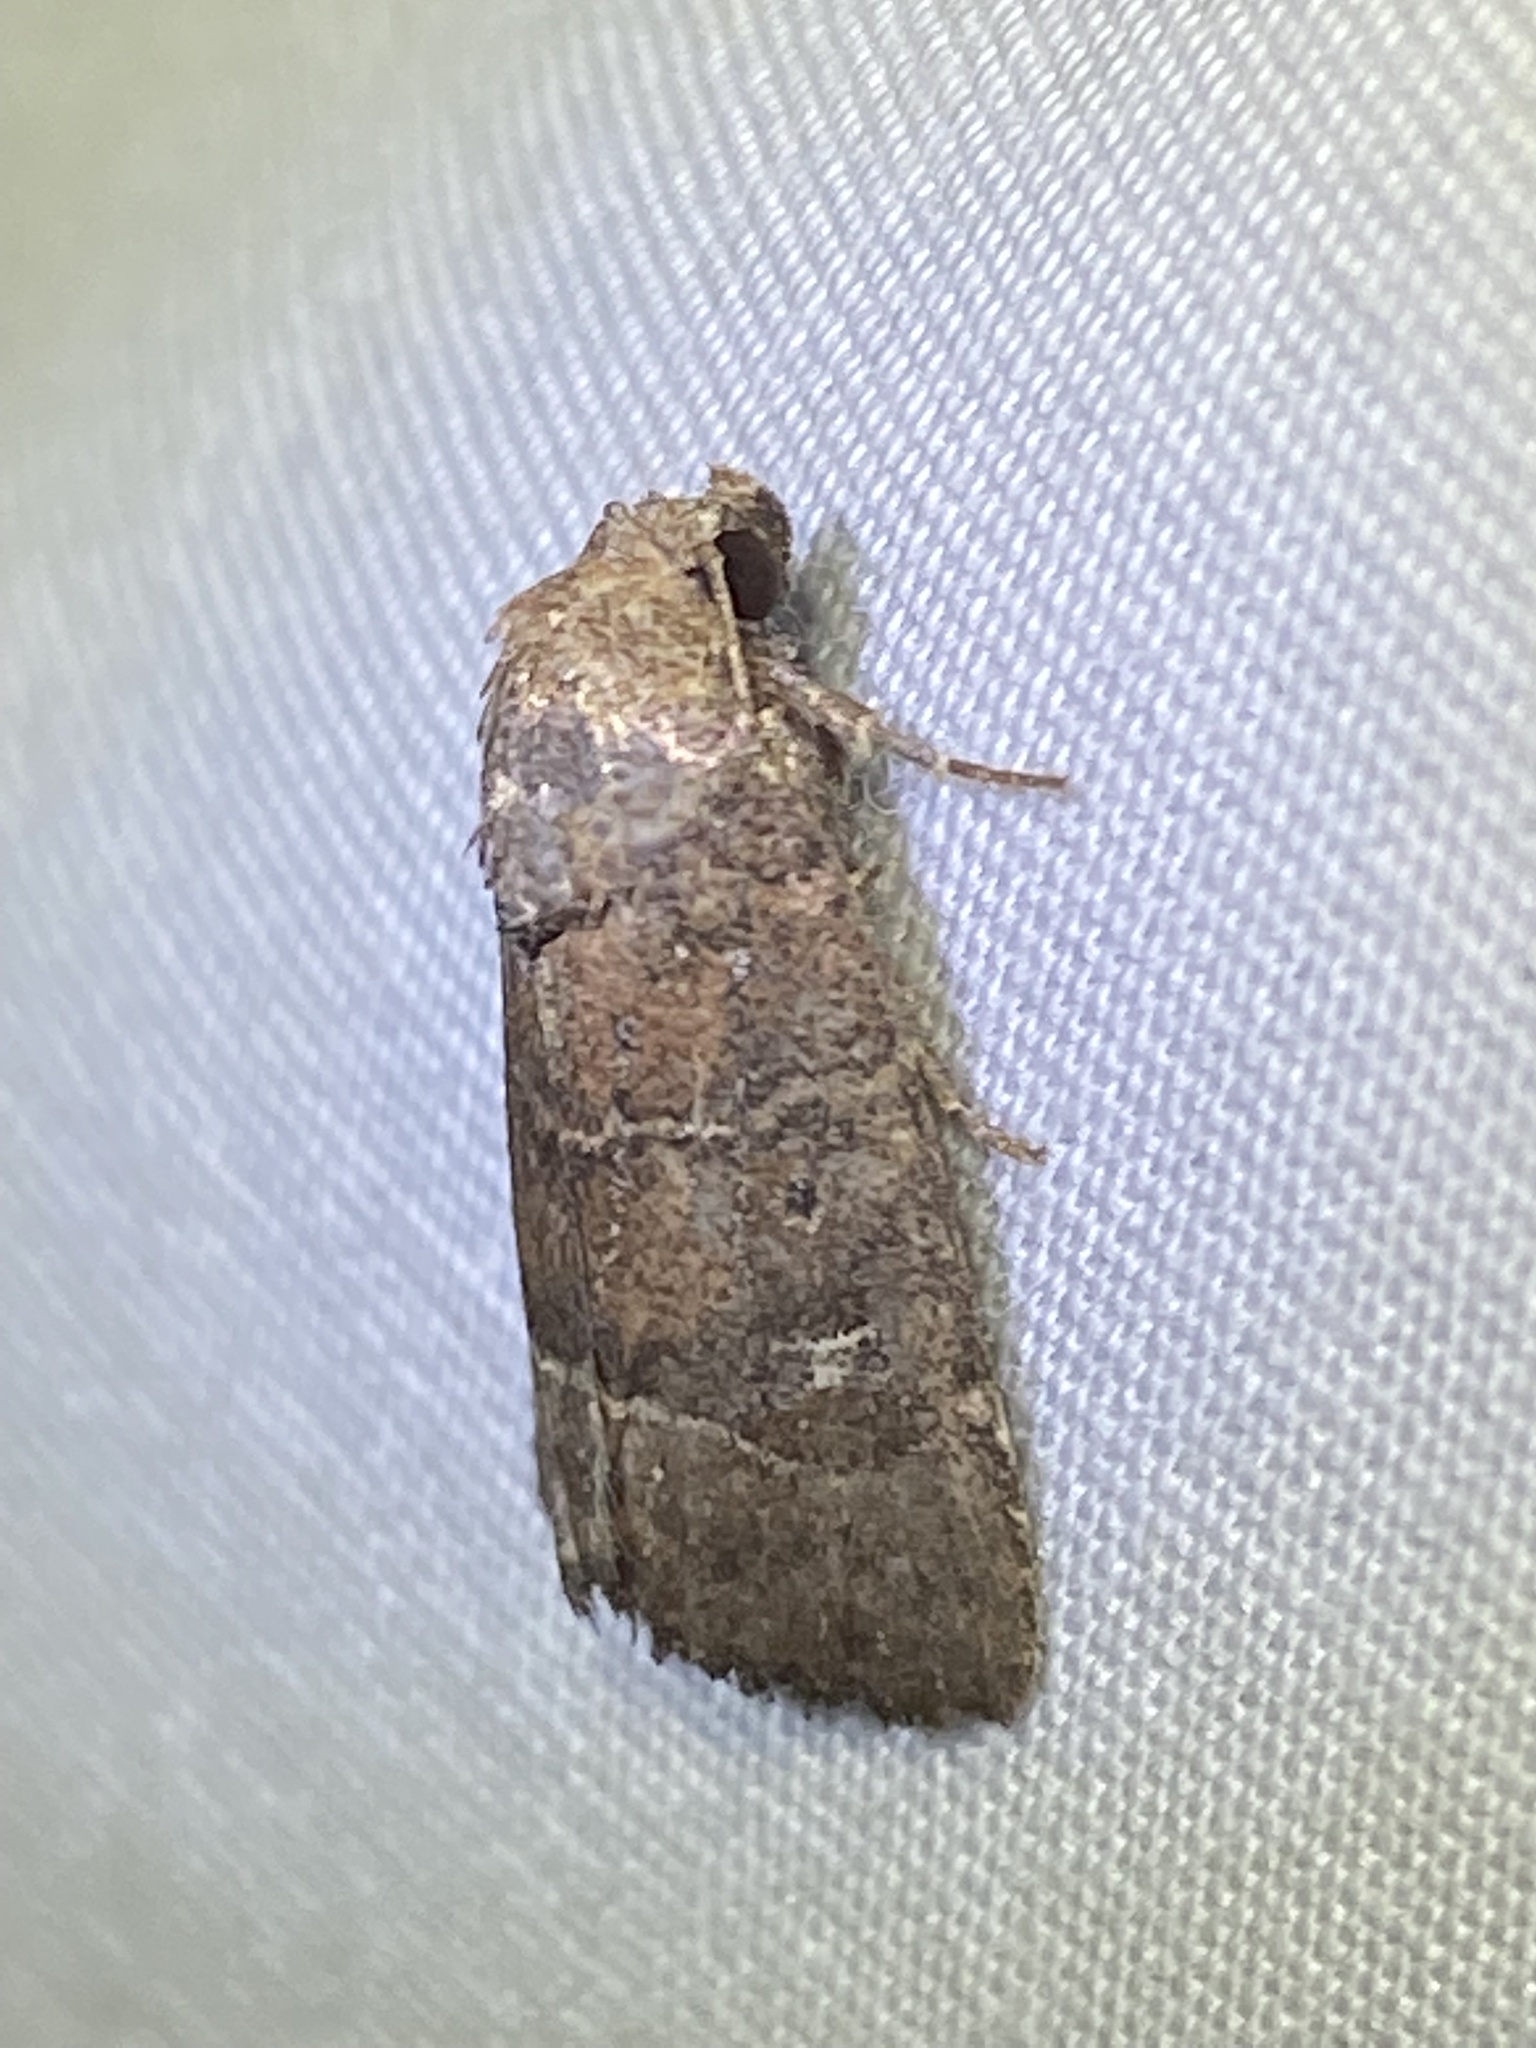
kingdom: Animalia
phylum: Arthropoda
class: Insecta
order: Lepidoptera
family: Noctuidae
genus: Elaphria
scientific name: Elaphria grata
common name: Grateful midget moth
